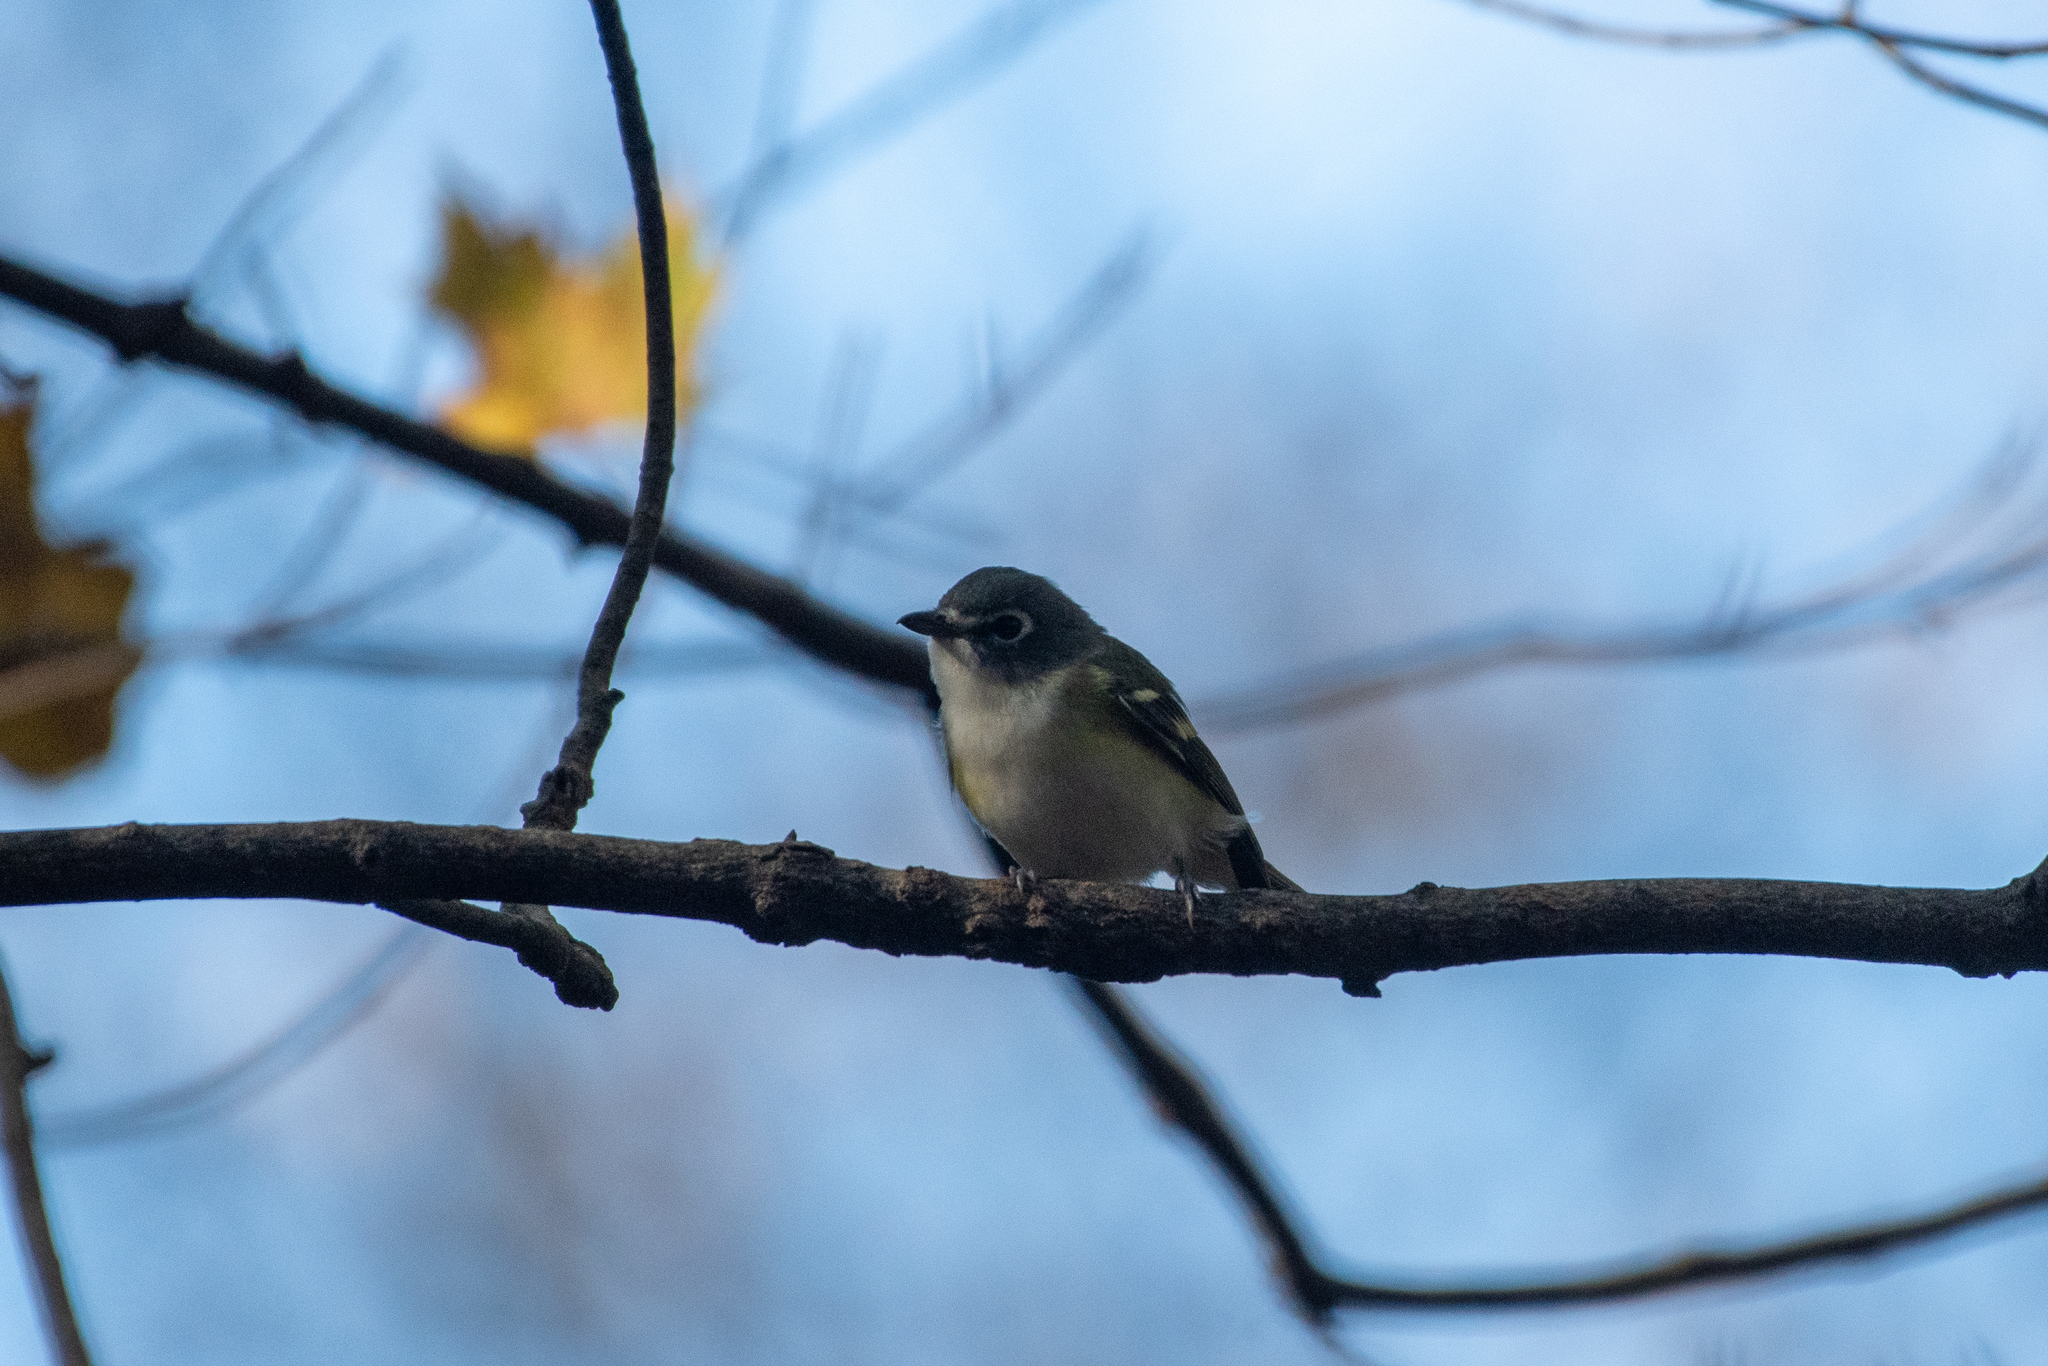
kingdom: Animalia
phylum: Chordata
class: Aves
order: Passeriformes
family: Vireonidae
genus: Vireo
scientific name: Vireo solitarius
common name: Blue-headed vireo
